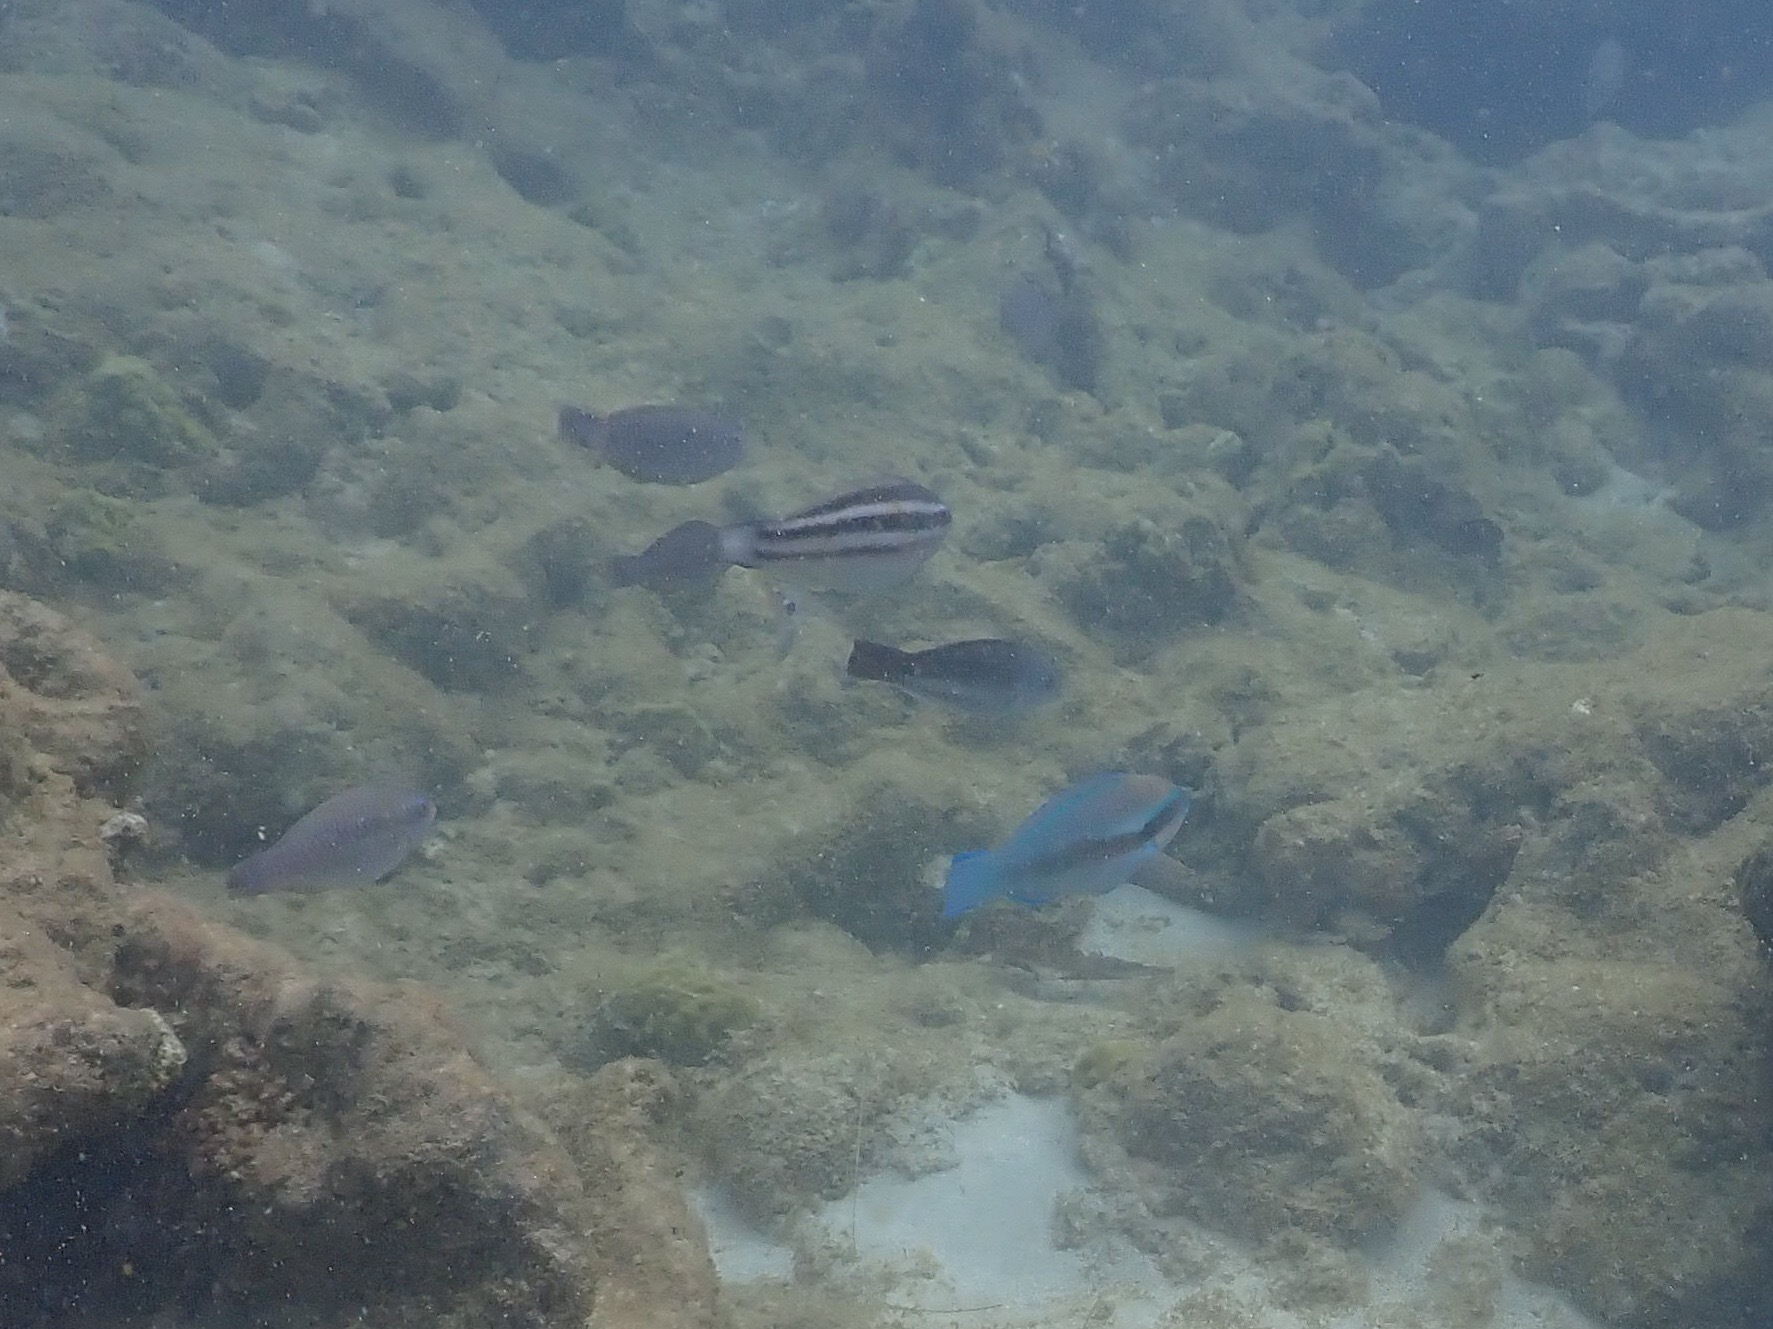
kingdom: Animalia
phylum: Chordata
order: Perciformes
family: Scaridae
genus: Scarus
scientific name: Scarus iseri
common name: Striped parrotfish
